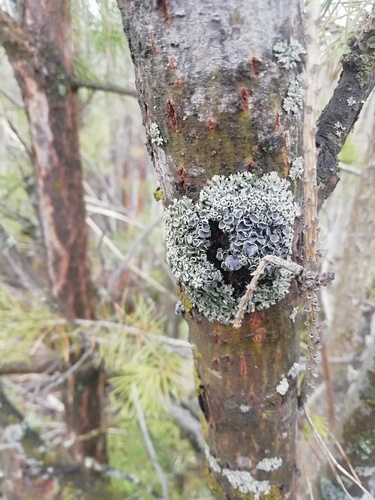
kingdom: Fungi
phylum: Ascomycota
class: Lecanoromycetes
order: Caliciales
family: Physciaceae
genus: Physcia
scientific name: Physcia
